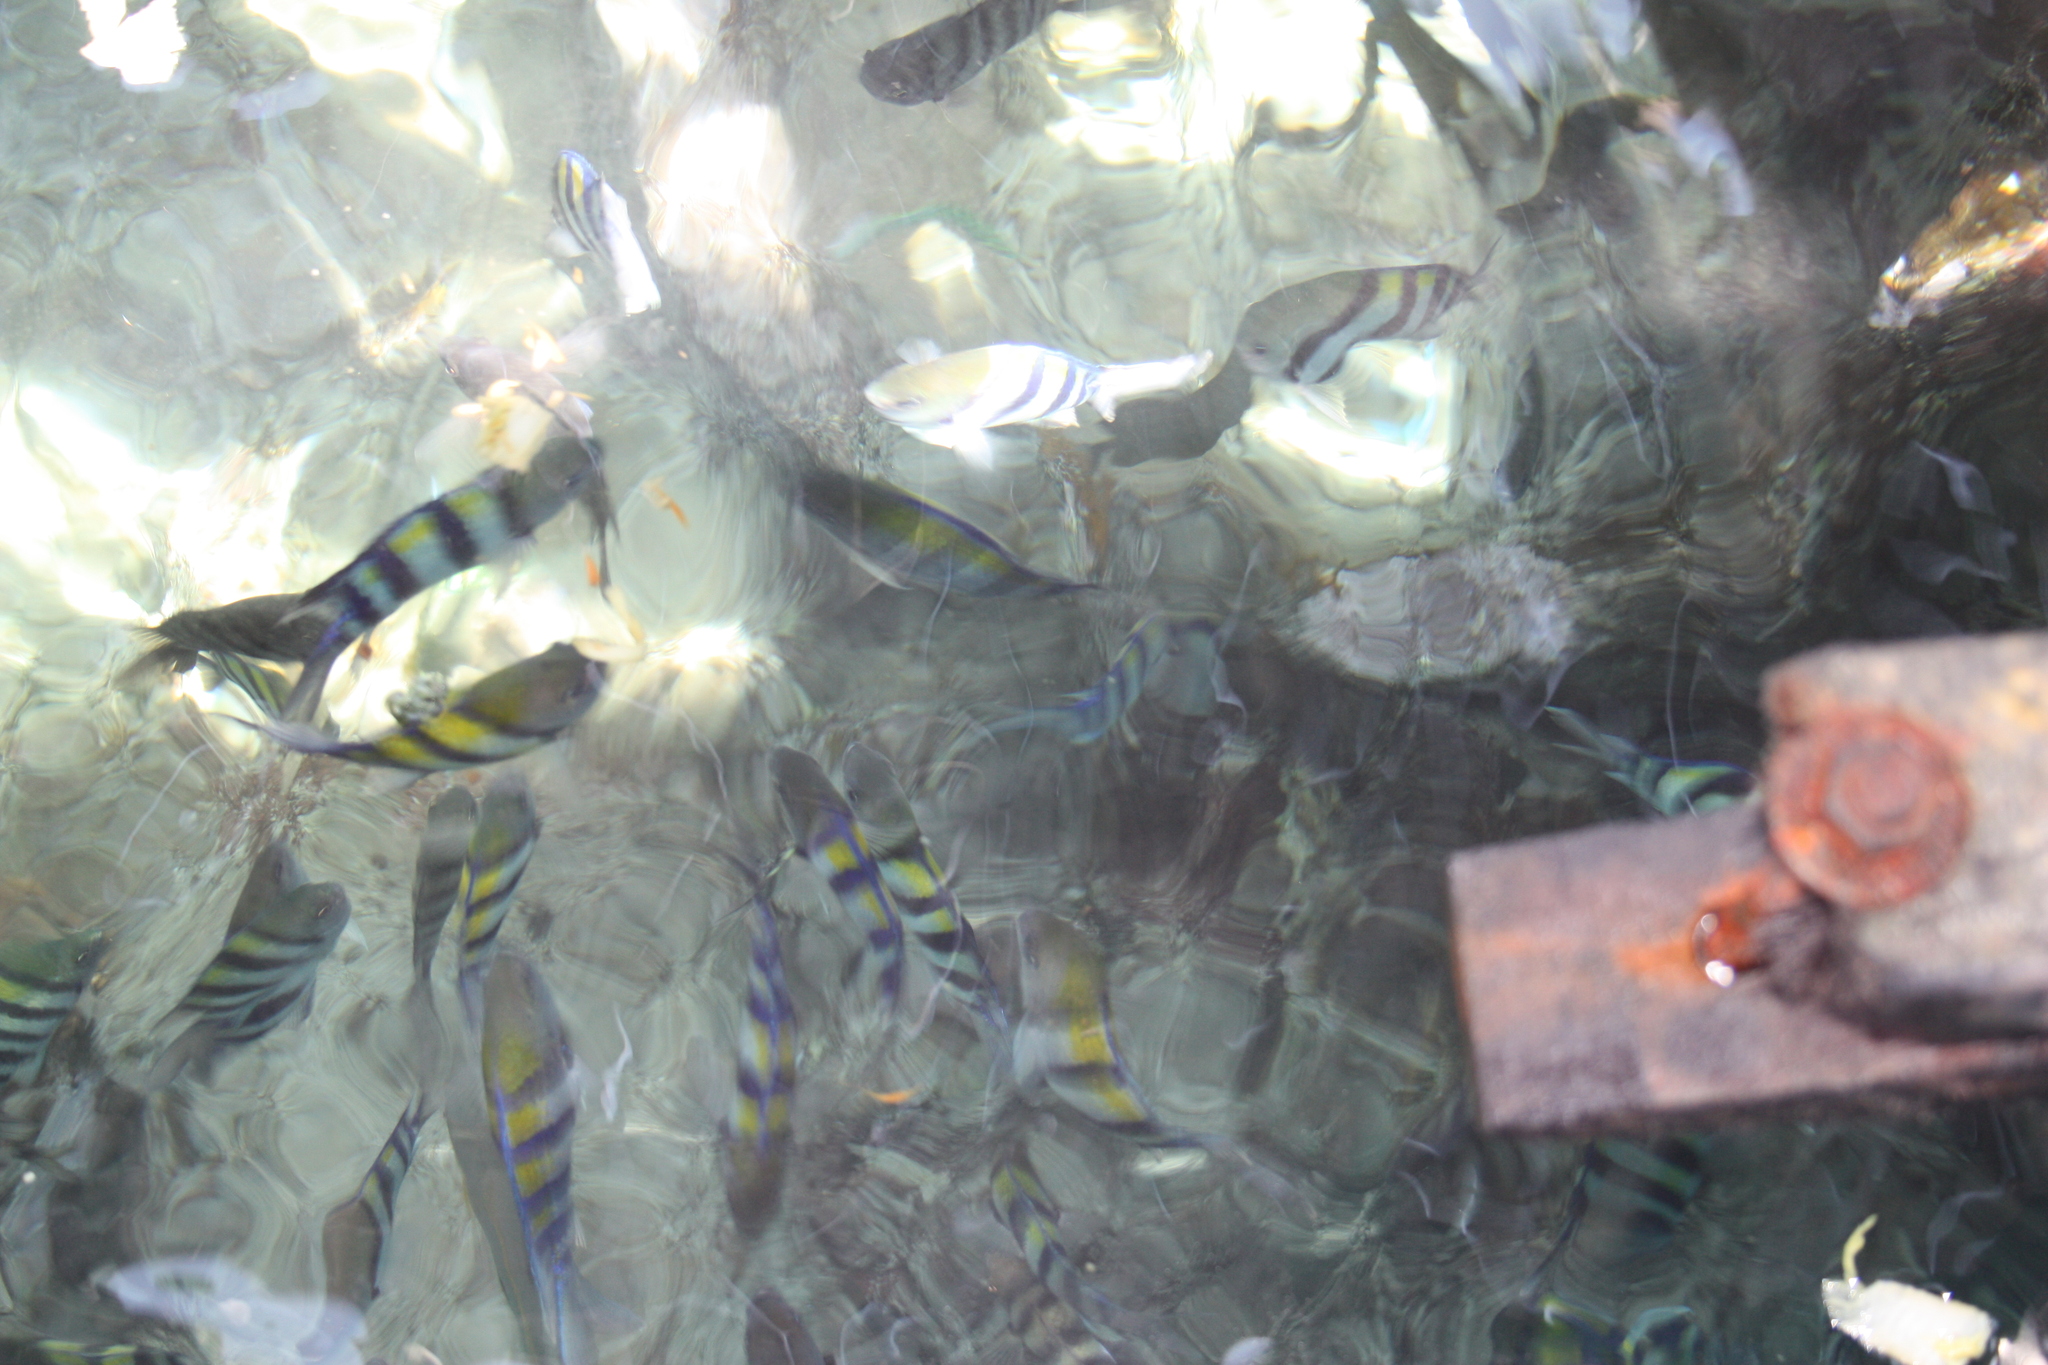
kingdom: Animalia
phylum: Chordata
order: Perciformes
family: Pomacentridae
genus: Abudefduf
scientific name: Abudefduf vaigiensis
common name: Indo-pacific sergeant
